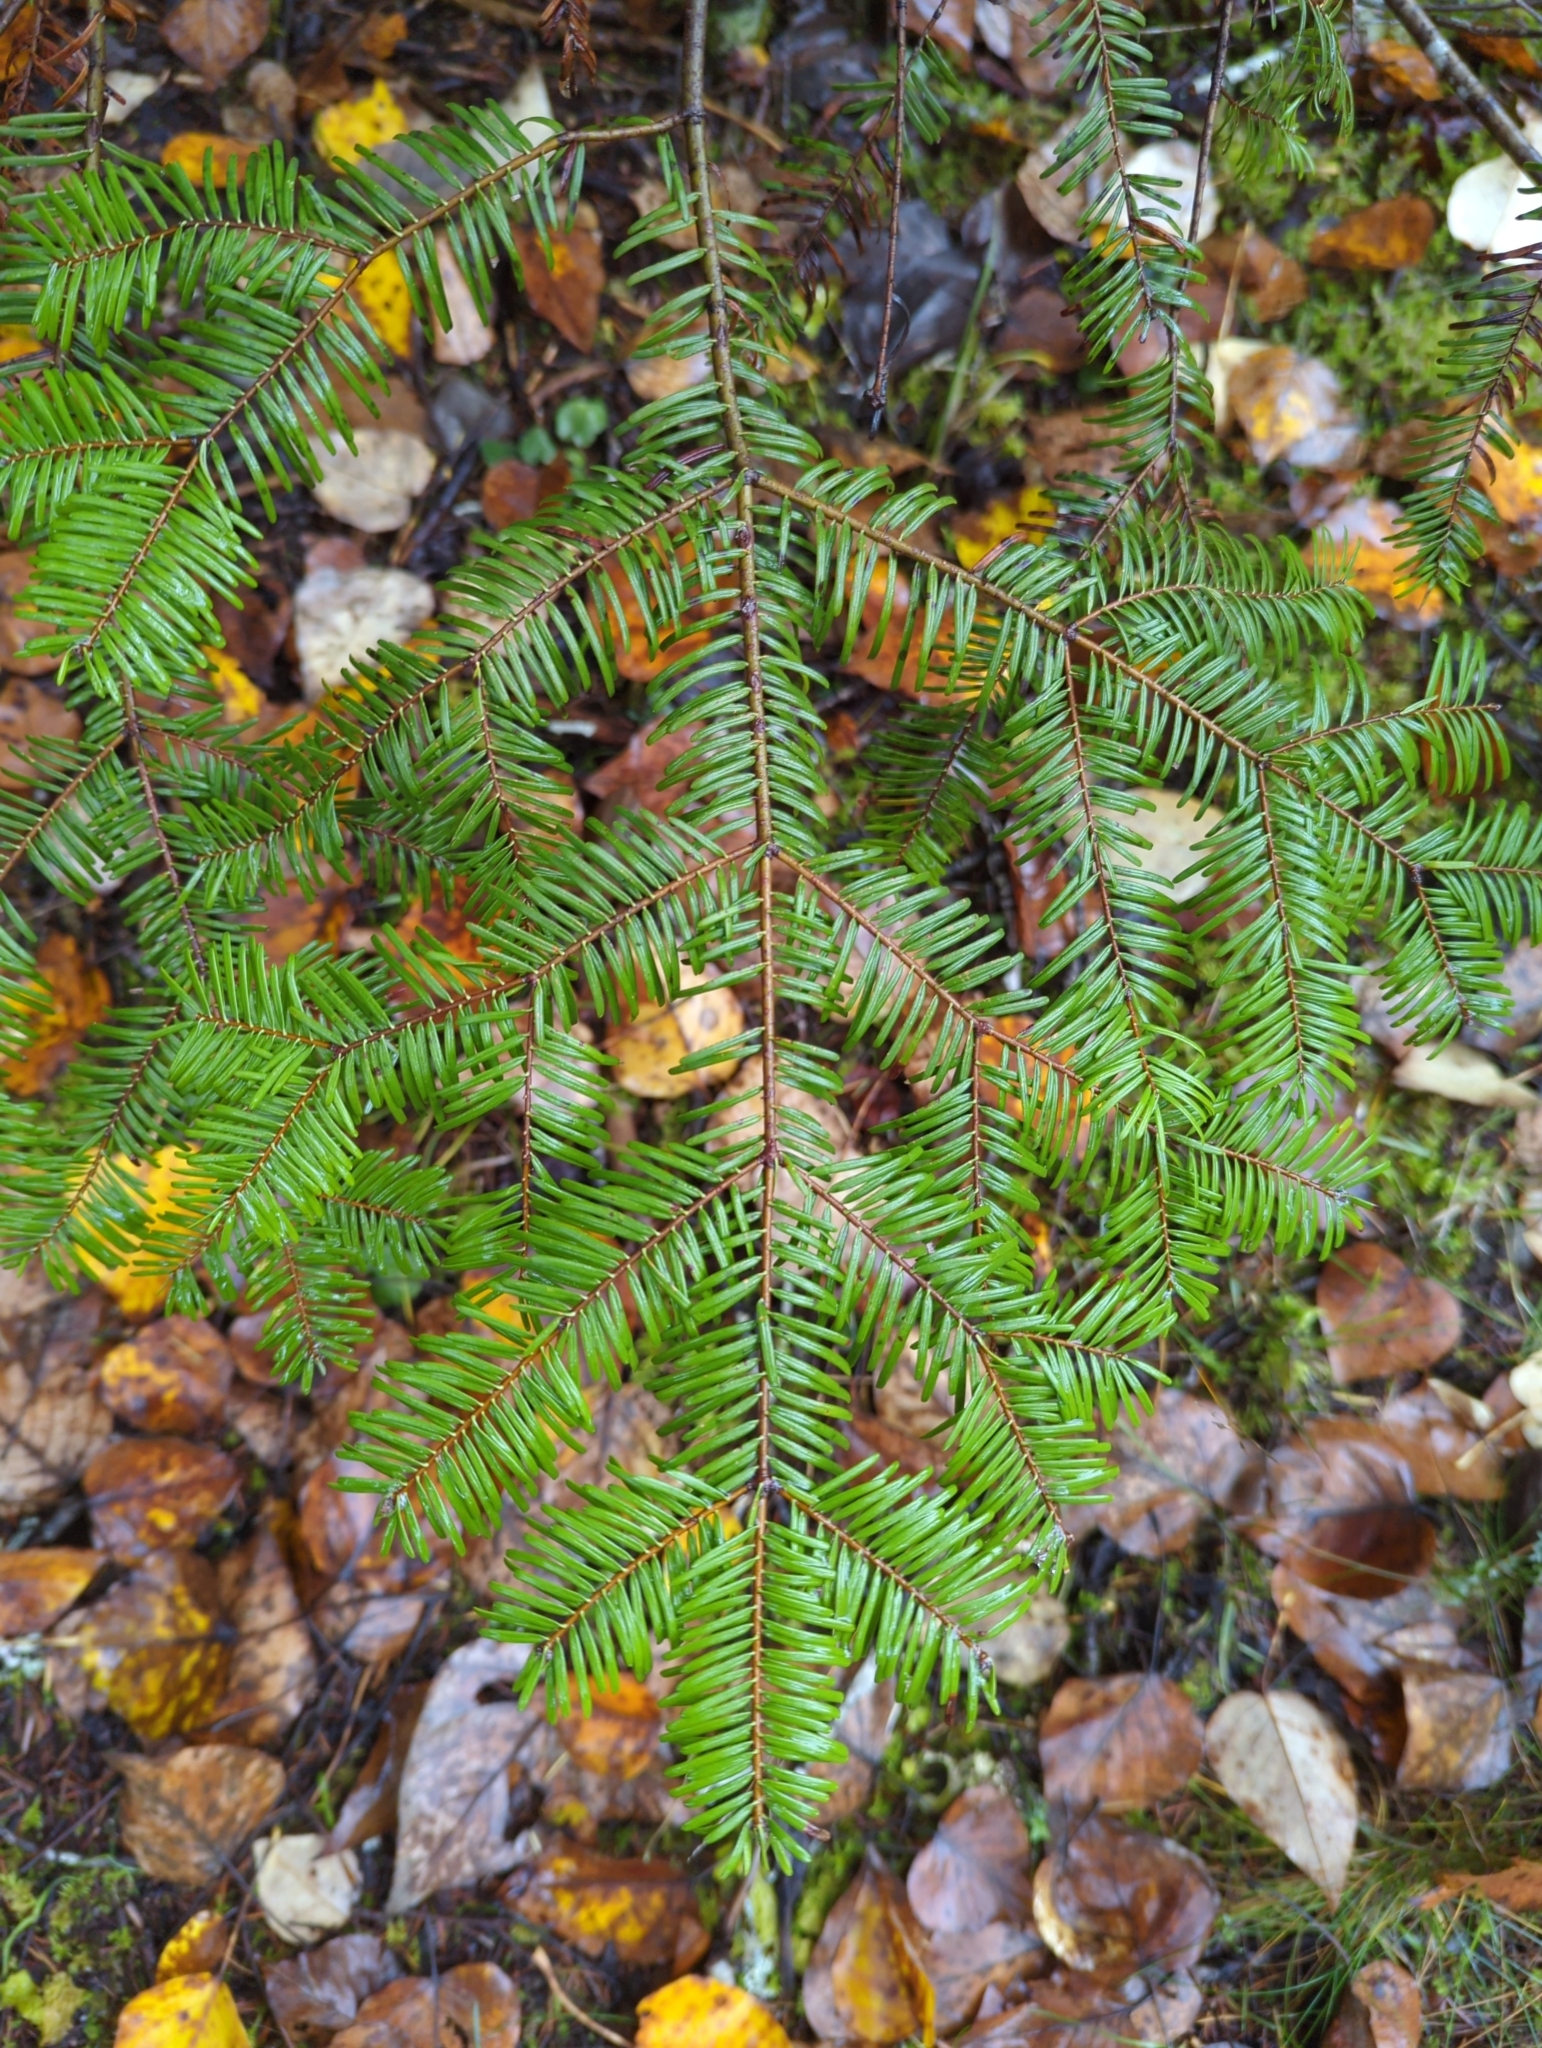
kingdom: Plantae
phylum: Tracheophyta
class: Pinopsida
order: Pinales
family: Pinaceae
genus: Abies
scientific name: Abies grandis
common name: Giant fir
